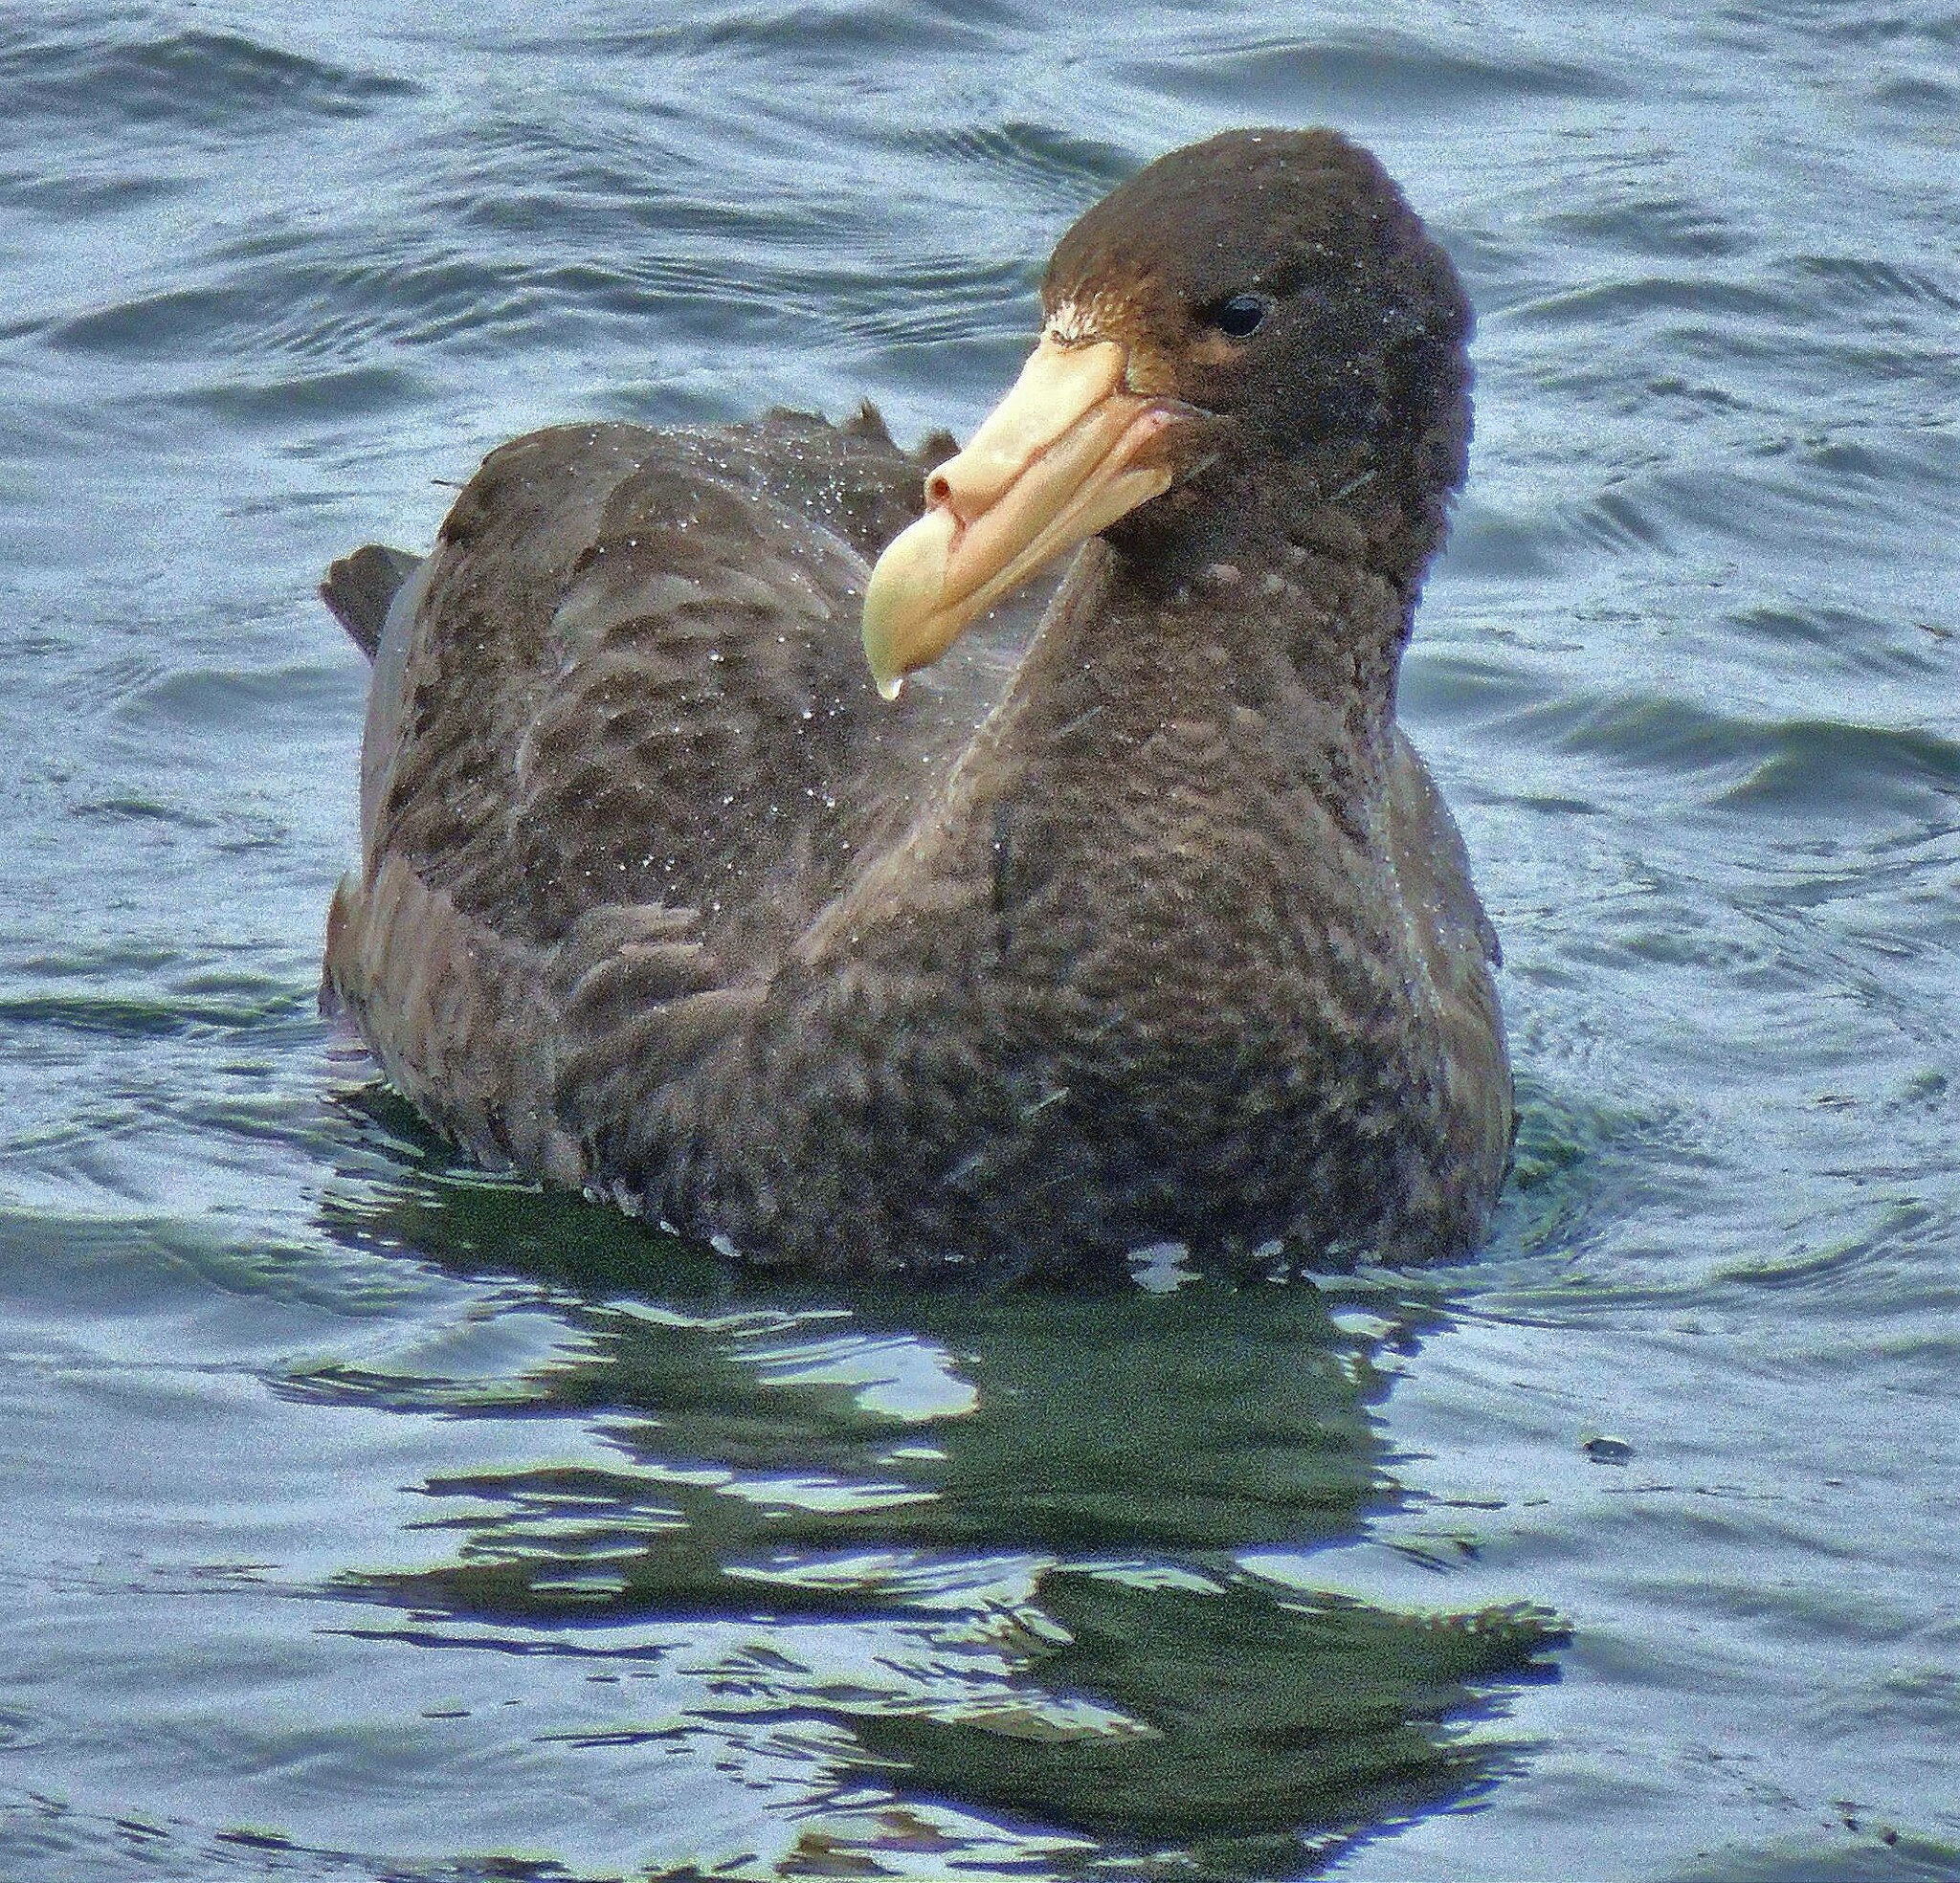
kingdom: Animalia
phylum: Chordata
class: Aves
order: Procellariiformes
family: Procellariidae
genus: Macronectes
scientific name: Macronectes giganteus
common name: Southern giant petrel
